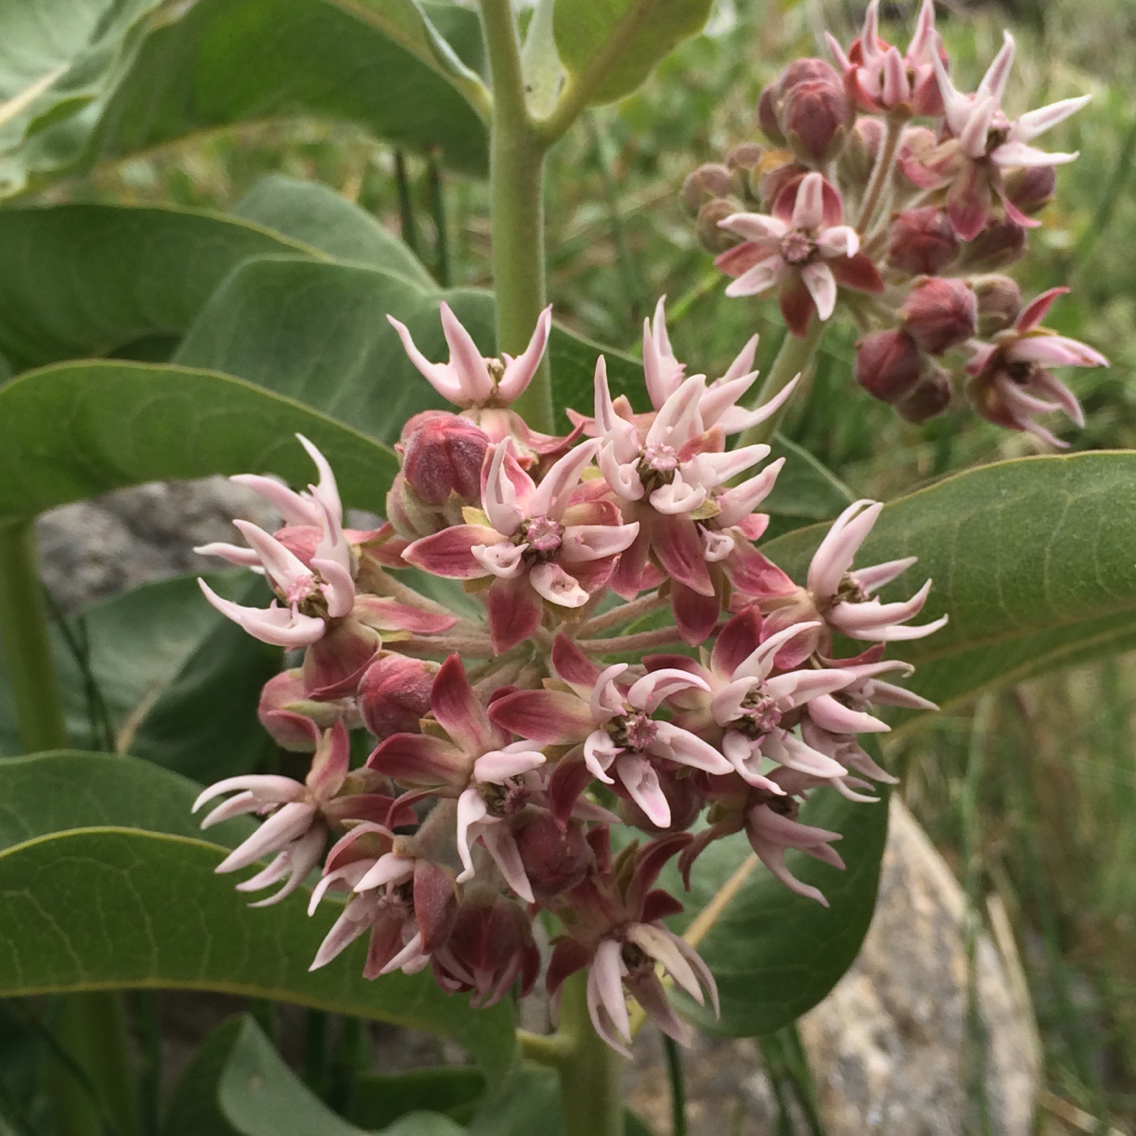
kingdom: Plantae
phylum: Tracheophyta
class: Magnoliopsida
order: Gentianales
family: Apocynaceae
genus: Asclepias
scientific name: Asclepias speciosa
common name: Showy milkweed
